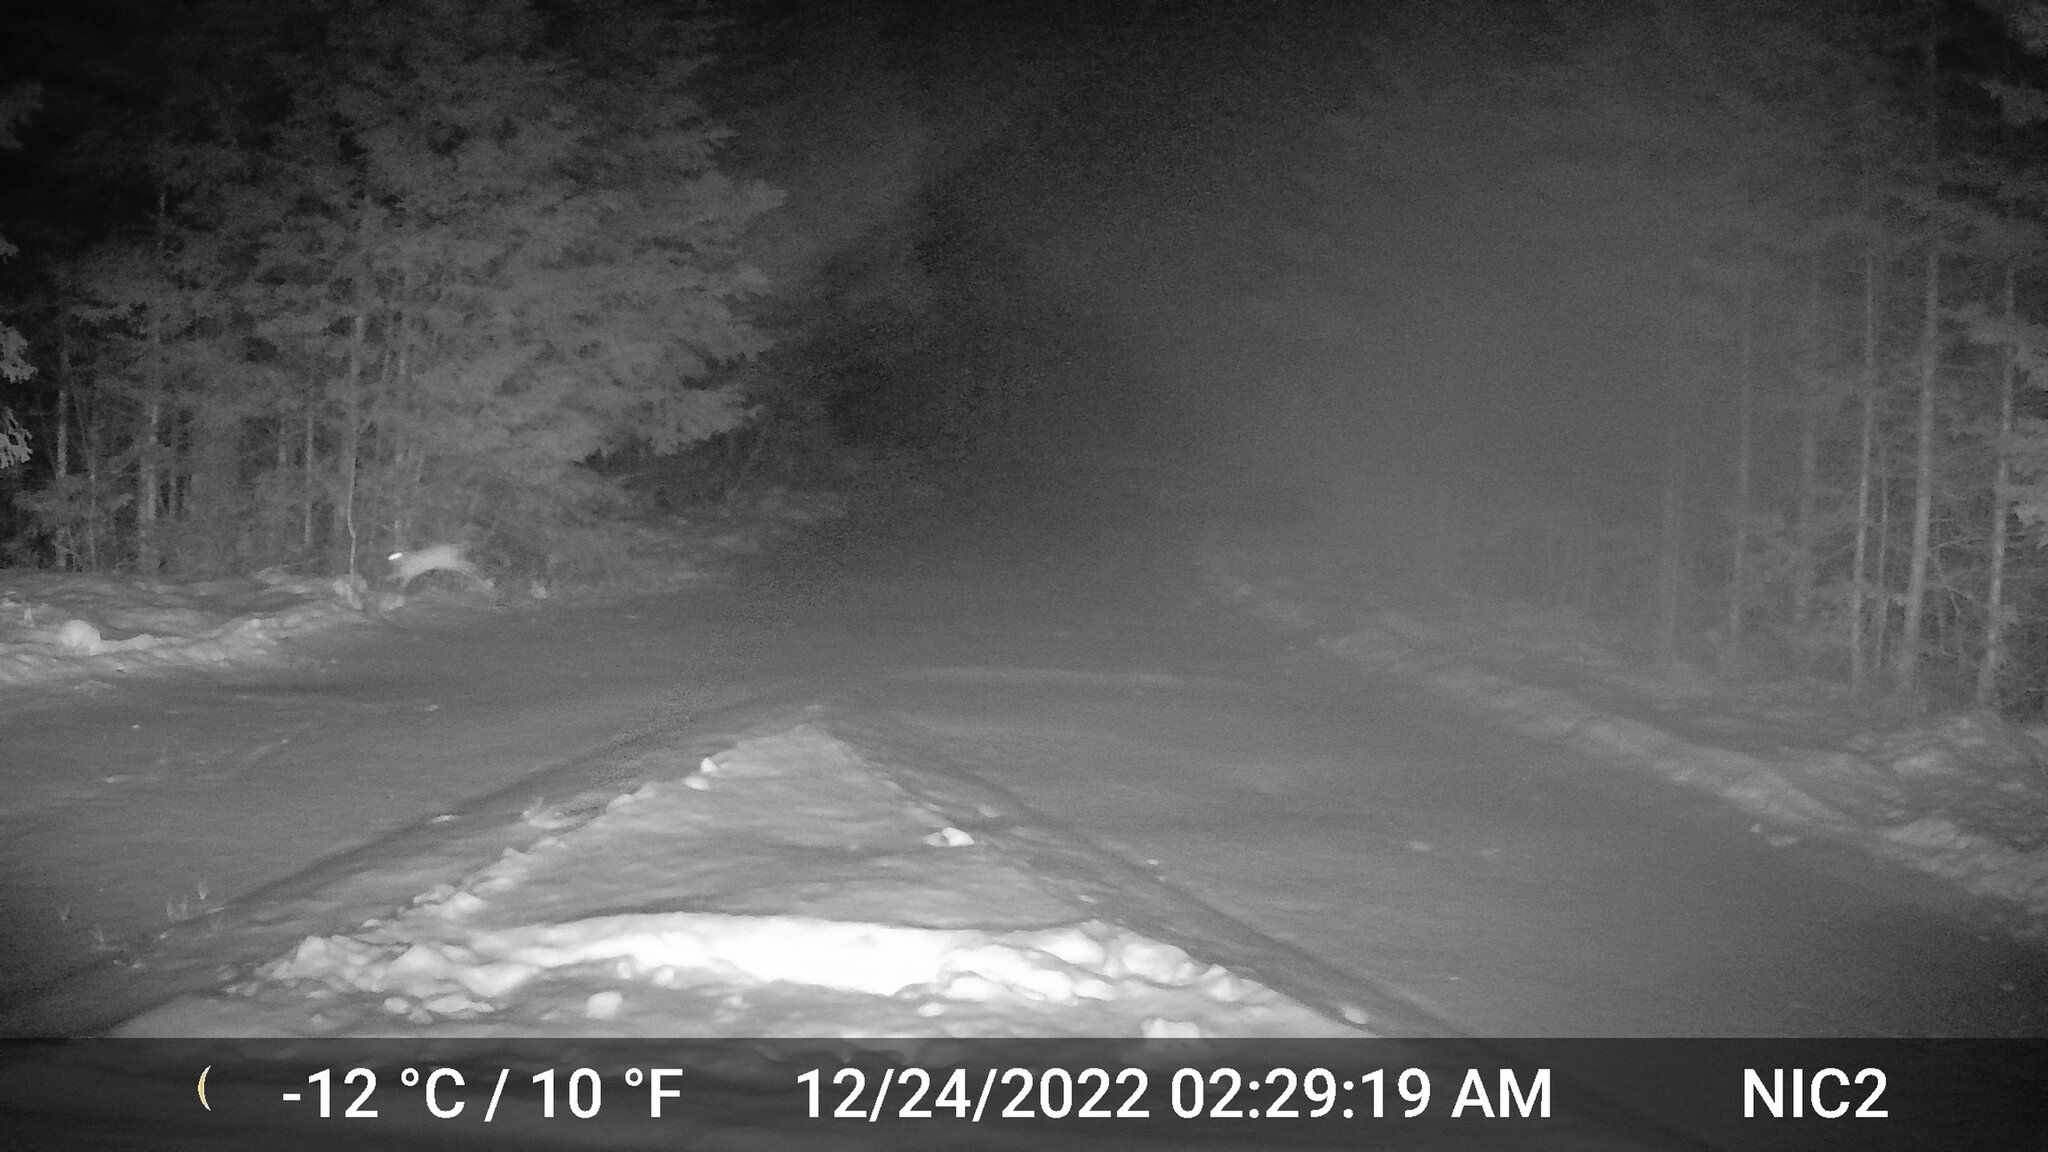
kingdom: Animalia
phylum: Chordata
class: Mammalia
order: Lagomorpha
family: Leporidae
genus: Lepus
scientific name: Lepus americanus
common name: Snowshoe hare
